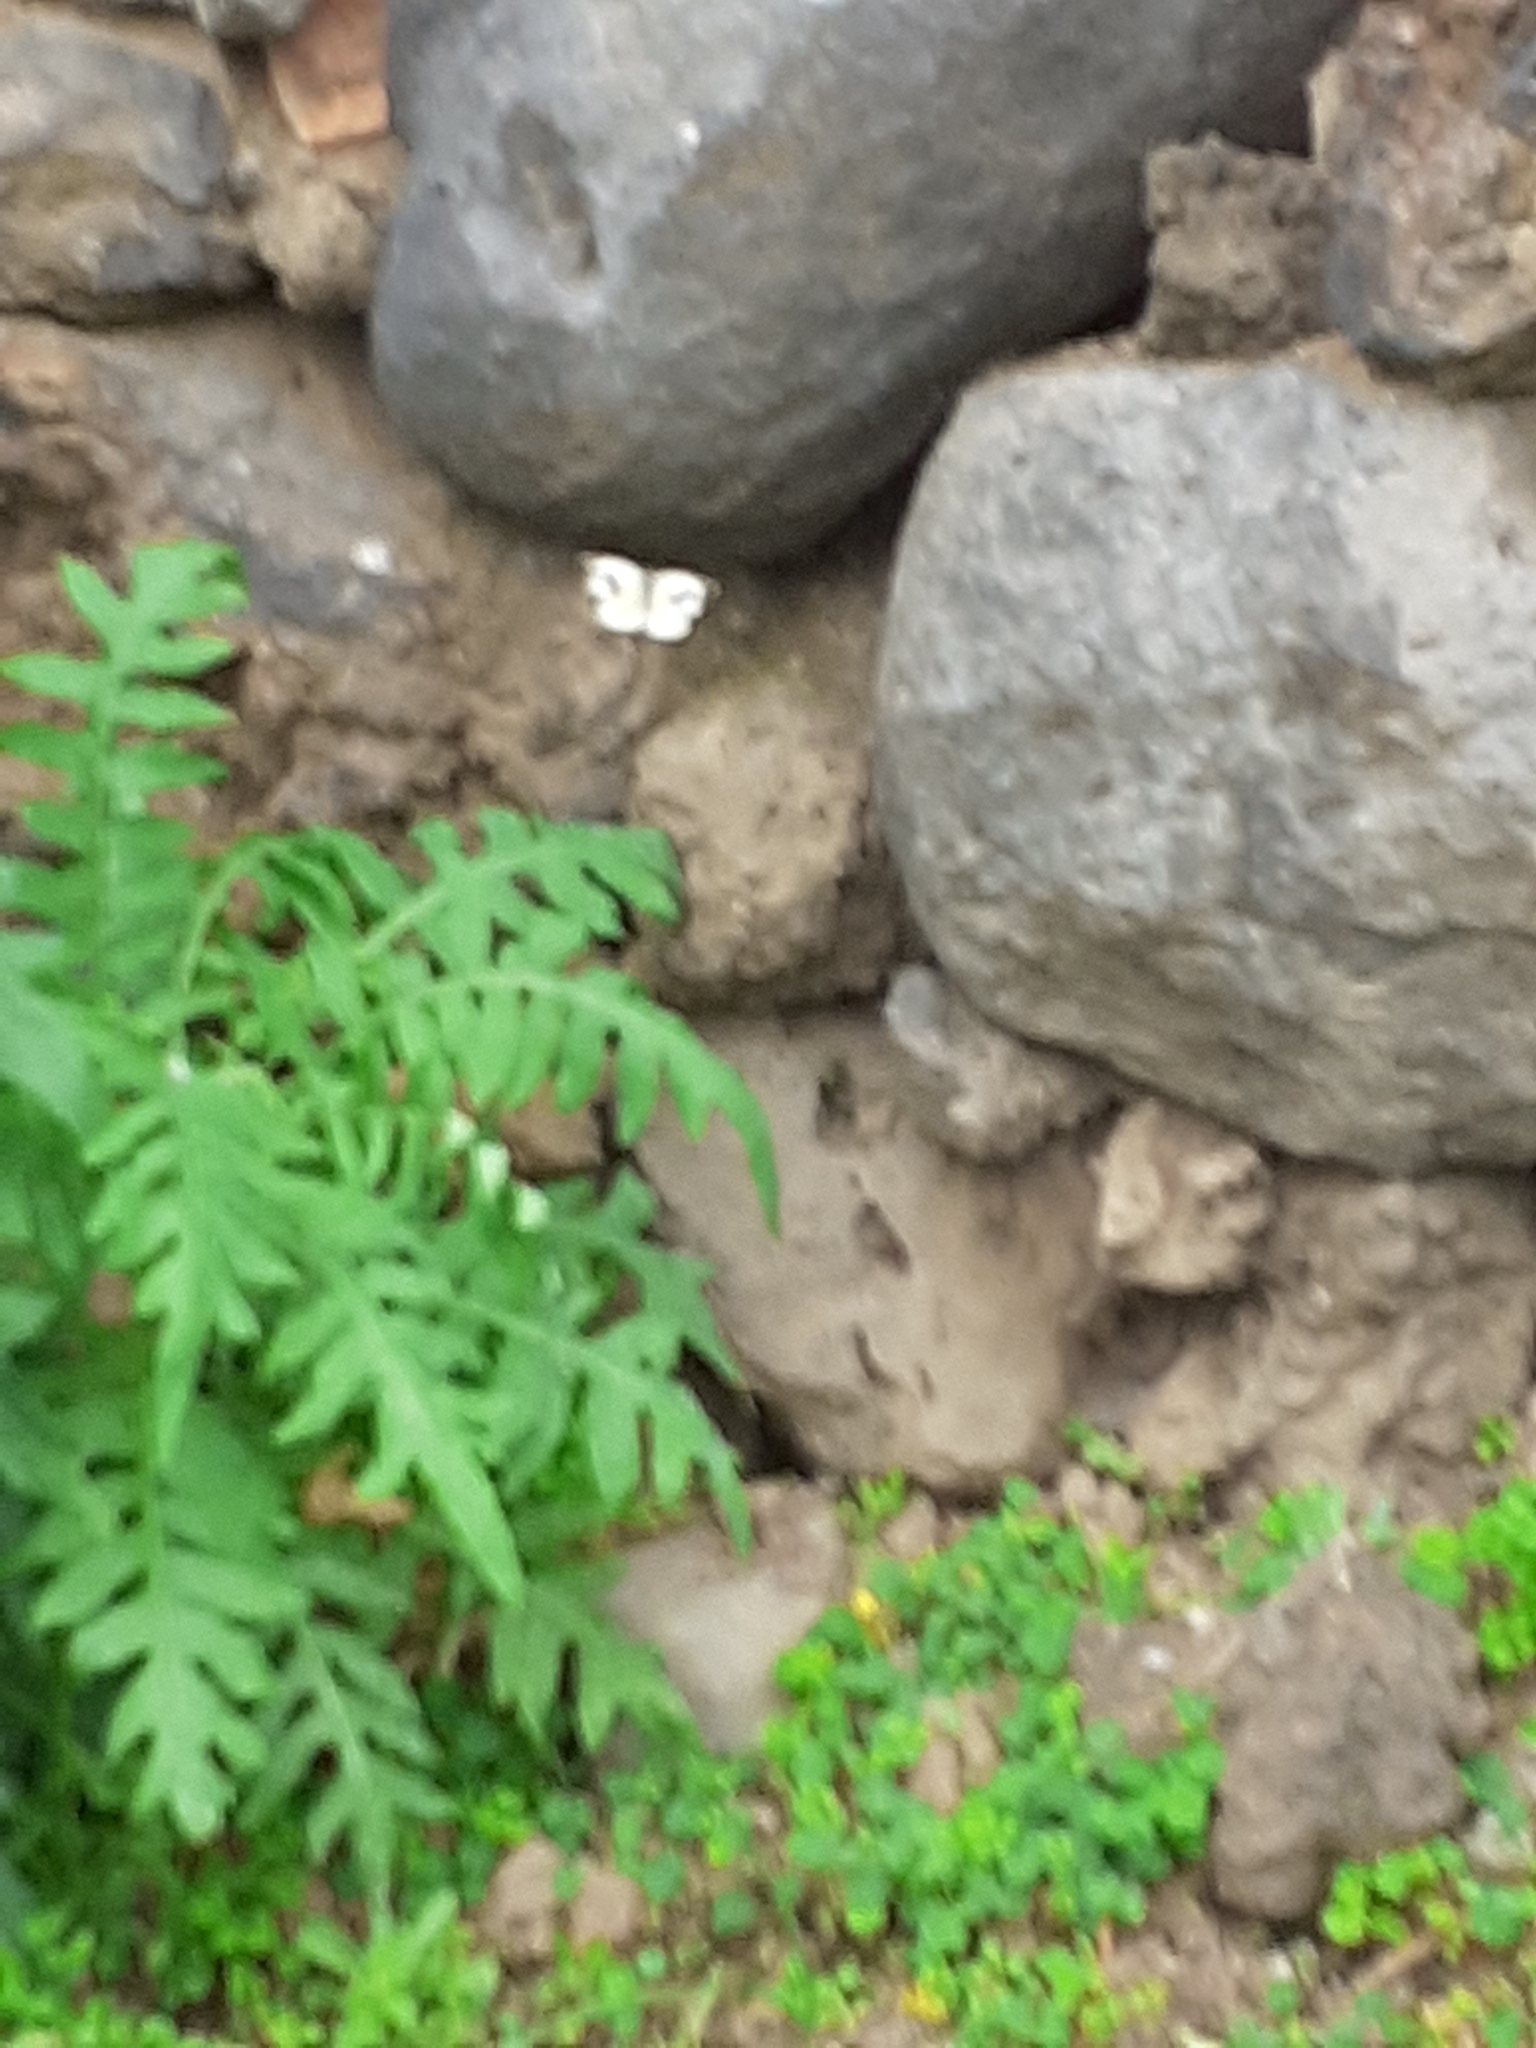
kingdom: Animalia
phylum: Arthropoda
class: Insecta
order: Lepidoptera
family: Pieridae
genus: Pieris
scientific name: Pieris cheiranthi
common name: Canary islands large white
